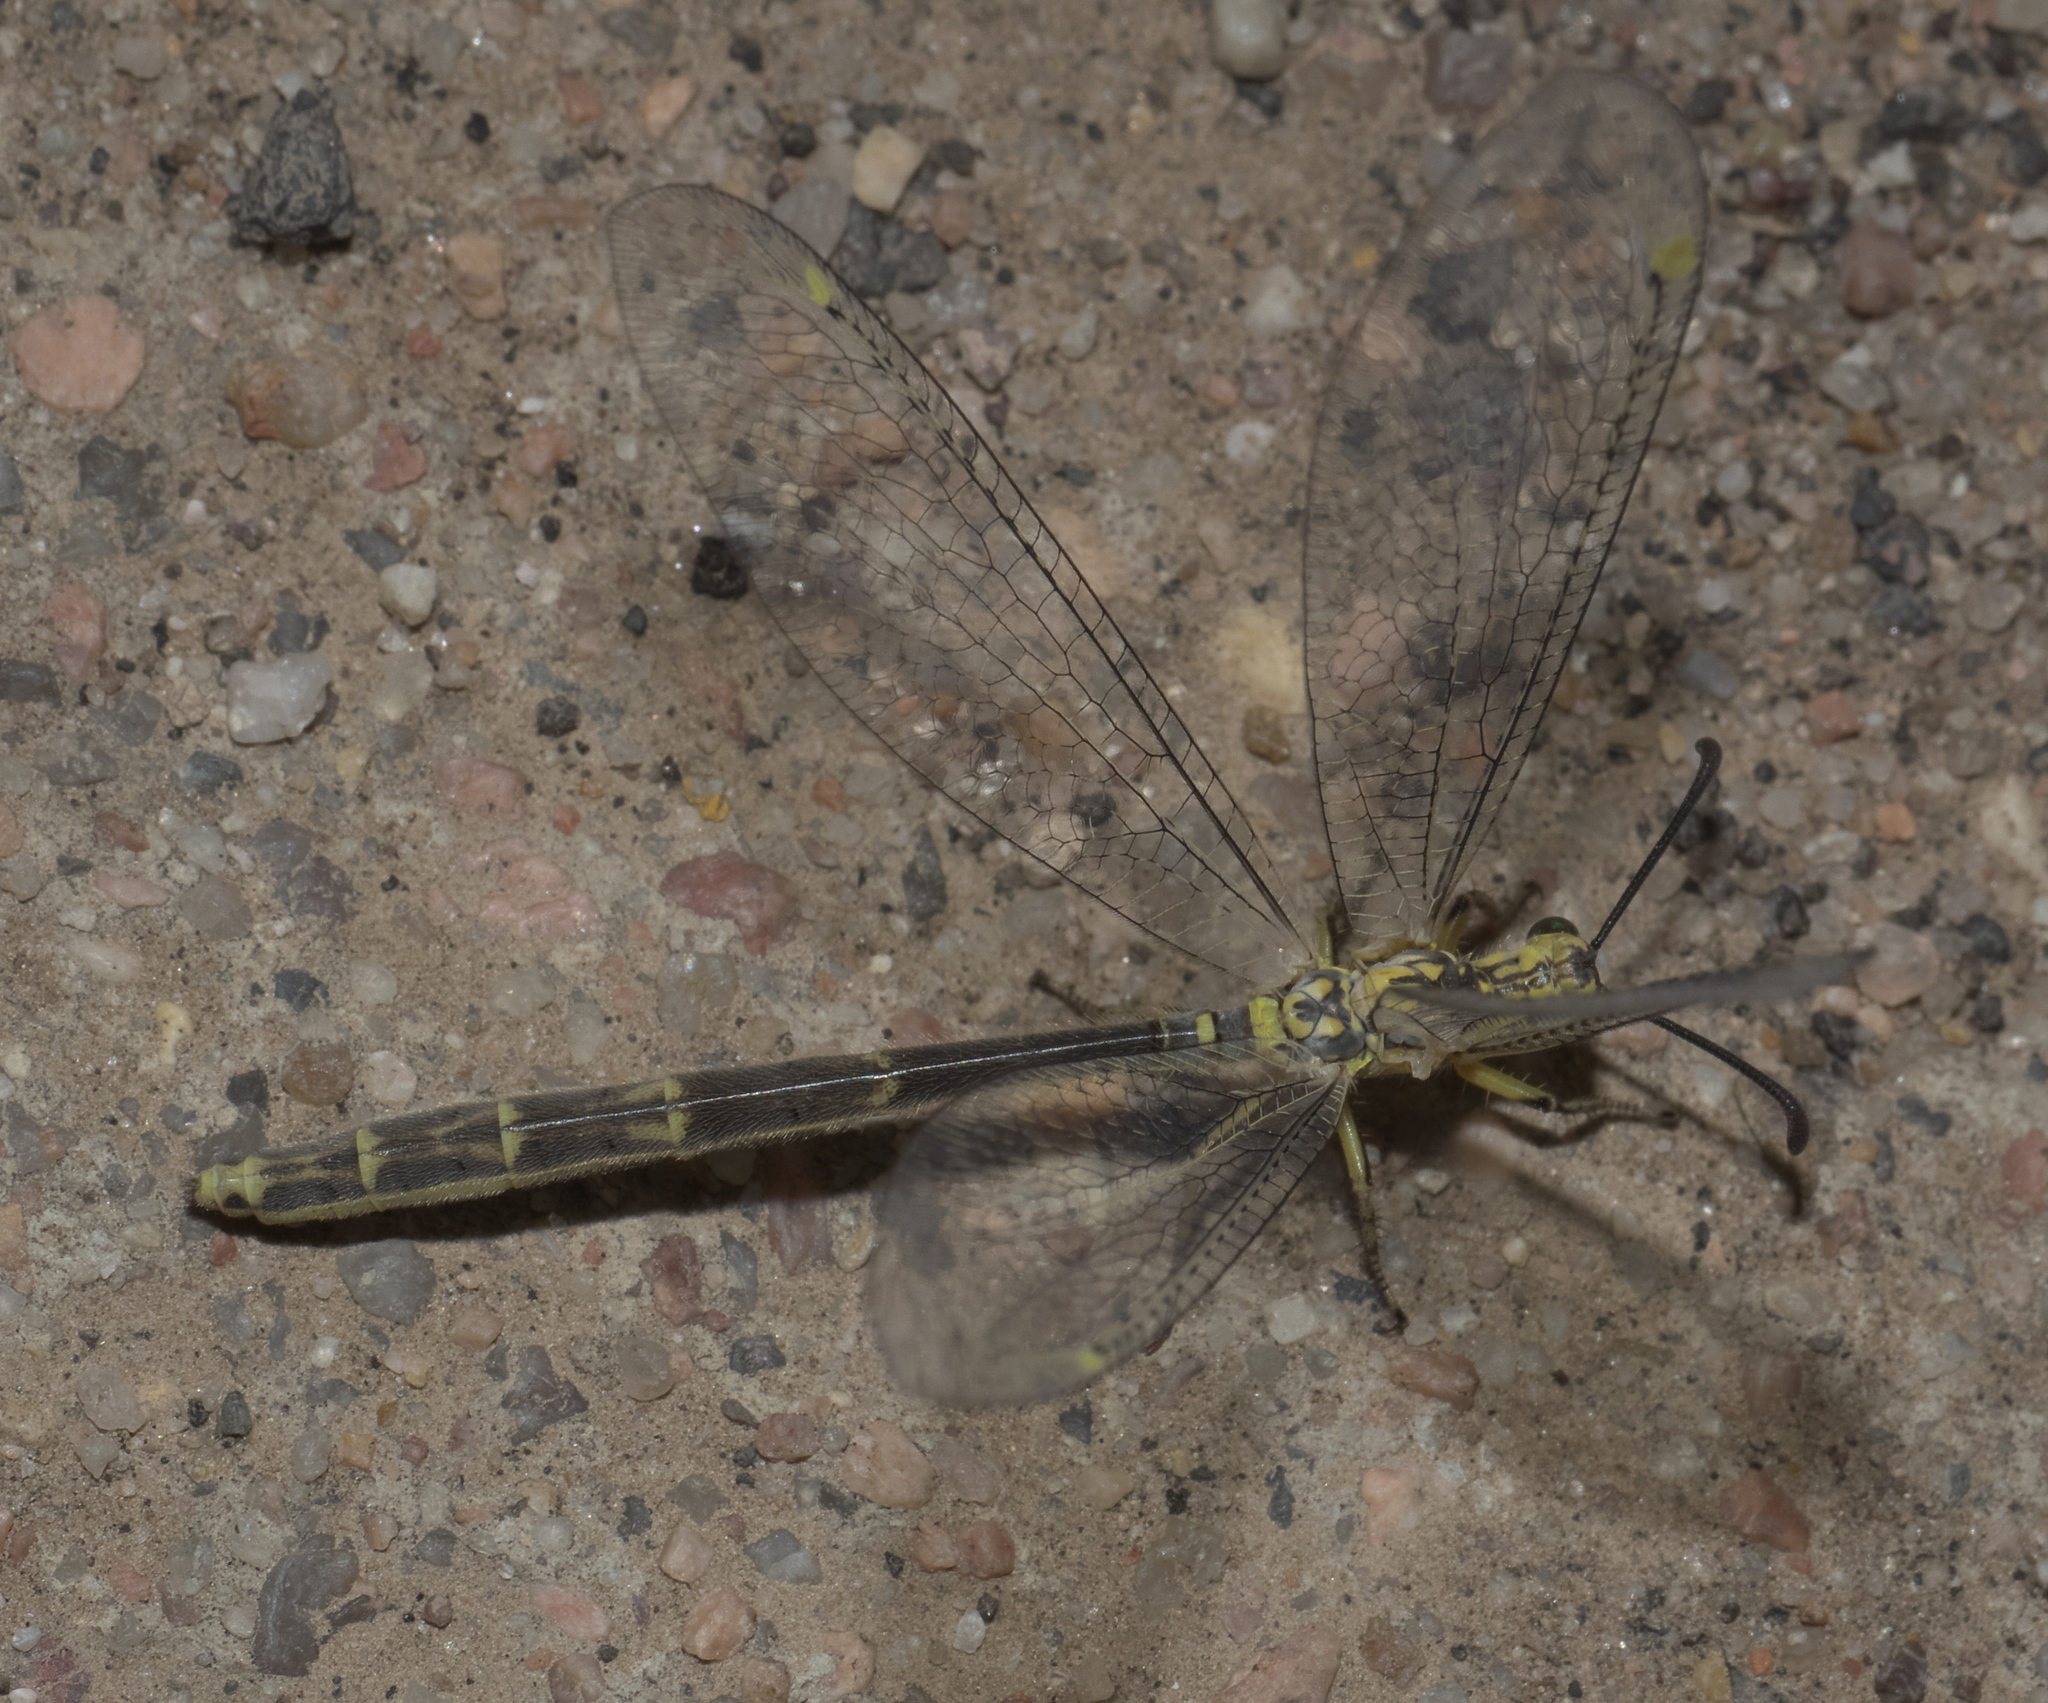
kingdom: Animalia
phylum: Arthropoda
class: Insecta
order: Neuroptera
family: Myrmeleontidae
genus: Scotoleon
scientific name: Scotoleon nigrilabris
